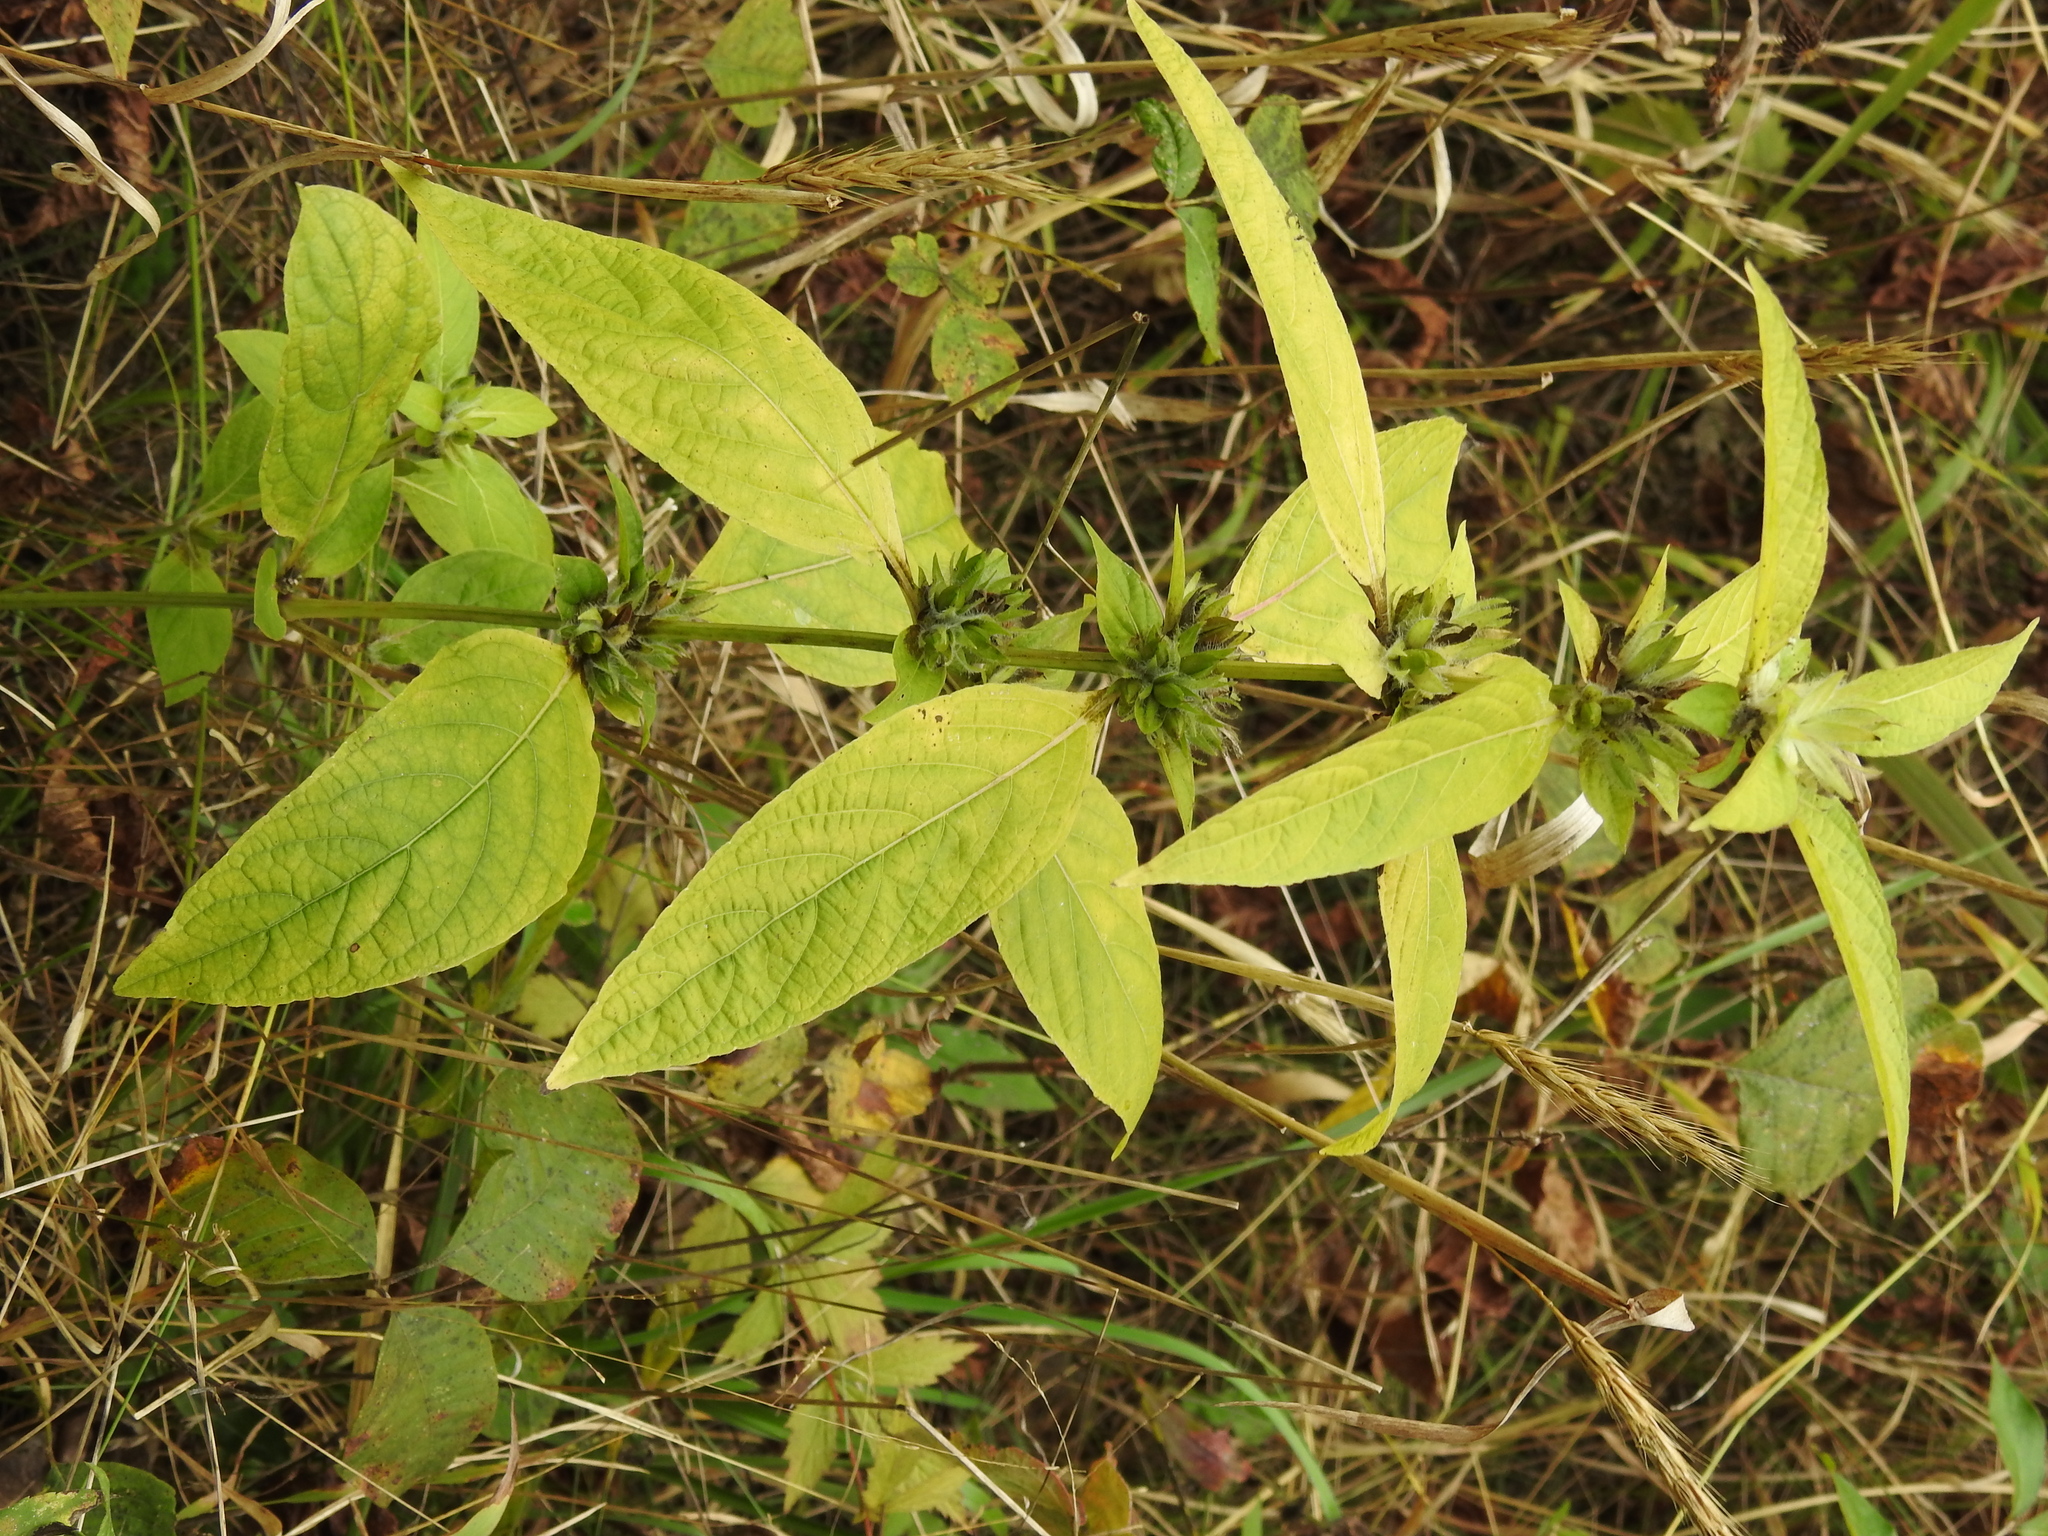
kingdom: Plantae
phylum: Tracheophyta
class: Magnoliopsida
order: Asterales
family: Campanulaceae
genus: Campanulastrum
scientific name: Campanulastrum americanum
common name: American bellflower
